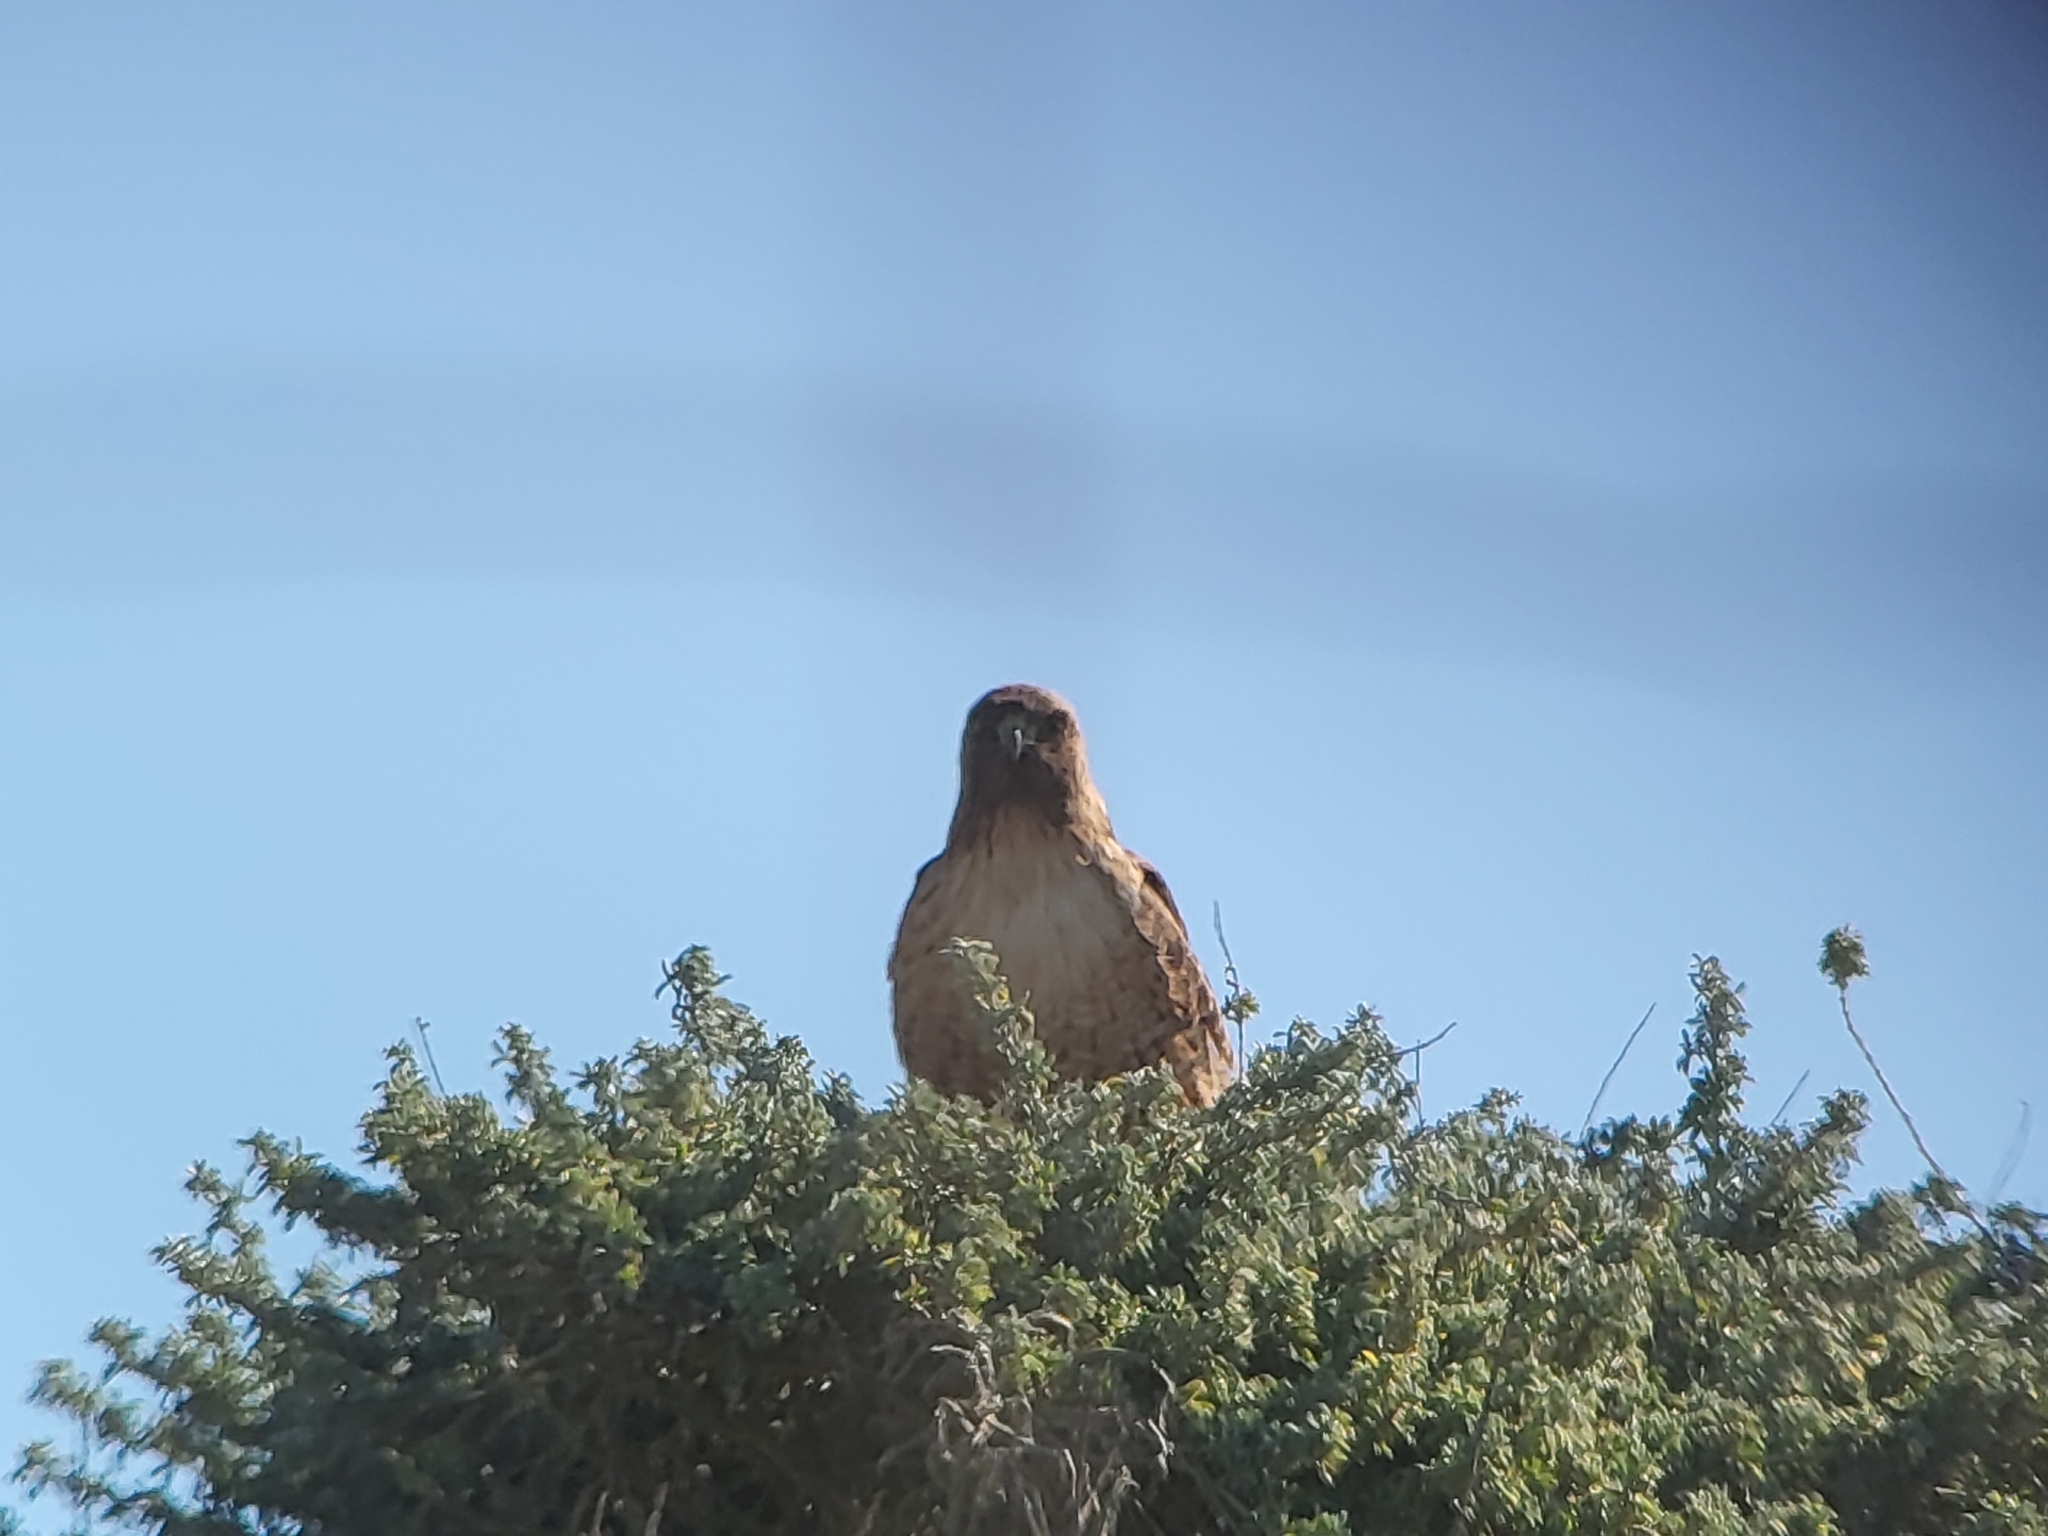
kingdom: Animalia
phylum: Chordata
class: Aves
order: Accipitriformes
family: Accipitridae
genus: Buteo
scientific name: Buteo jamaicensis
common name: Red-tailed hawk
